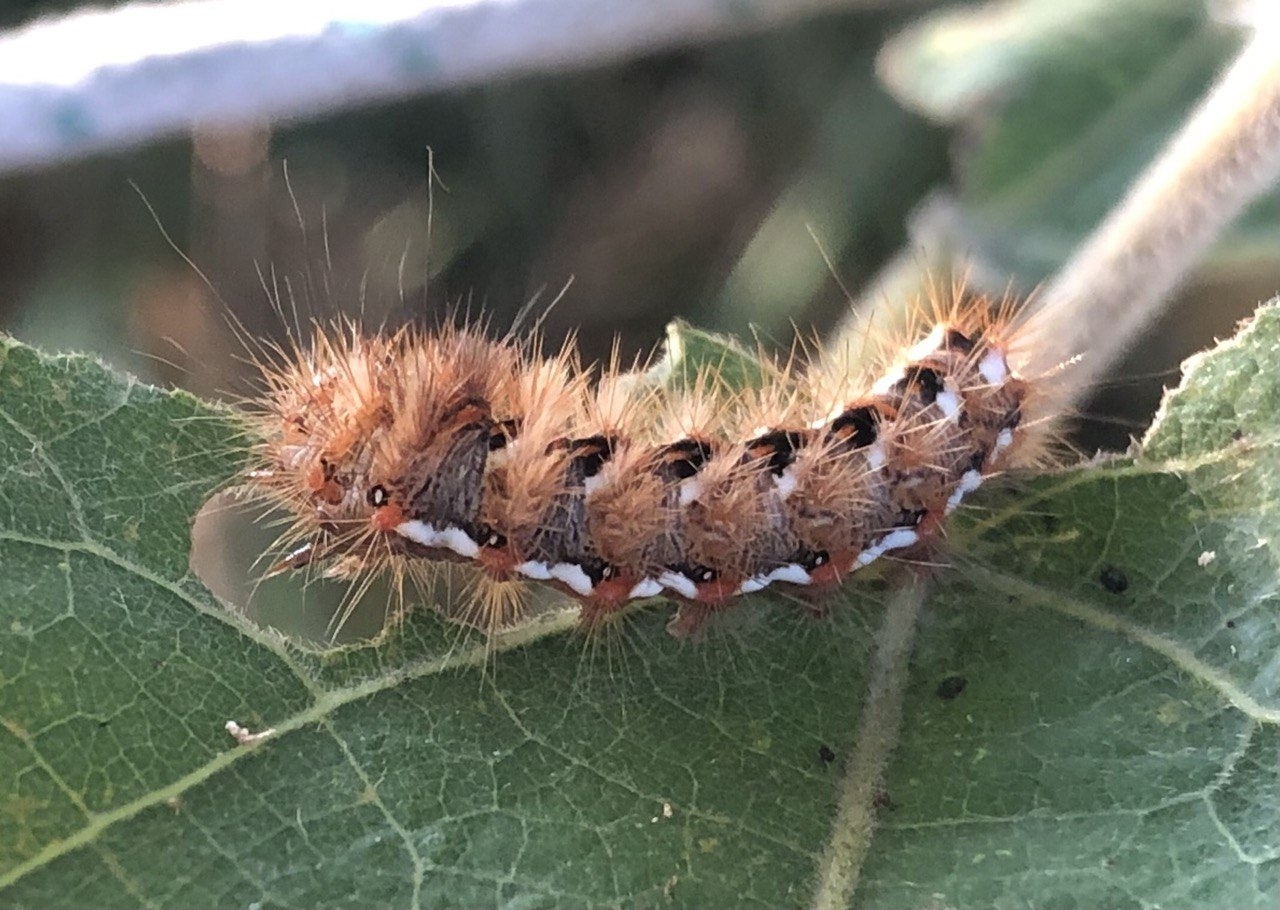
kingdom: Animalia
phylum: Arthropoda
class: Insecta
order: Lepidoptera
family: Noctuidae
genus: Acronicta
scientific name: Acronicta rumicis
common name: Knot grass
